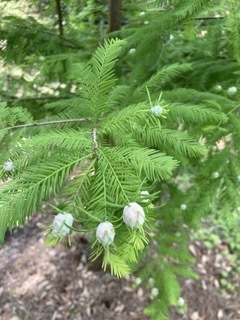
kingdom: Animalia
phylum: Arthropoda
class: Insecta
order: Diptera
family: Cecidomyiidae
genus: Taxodiomyia
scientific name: Taxodiomyia cupressiananassa
